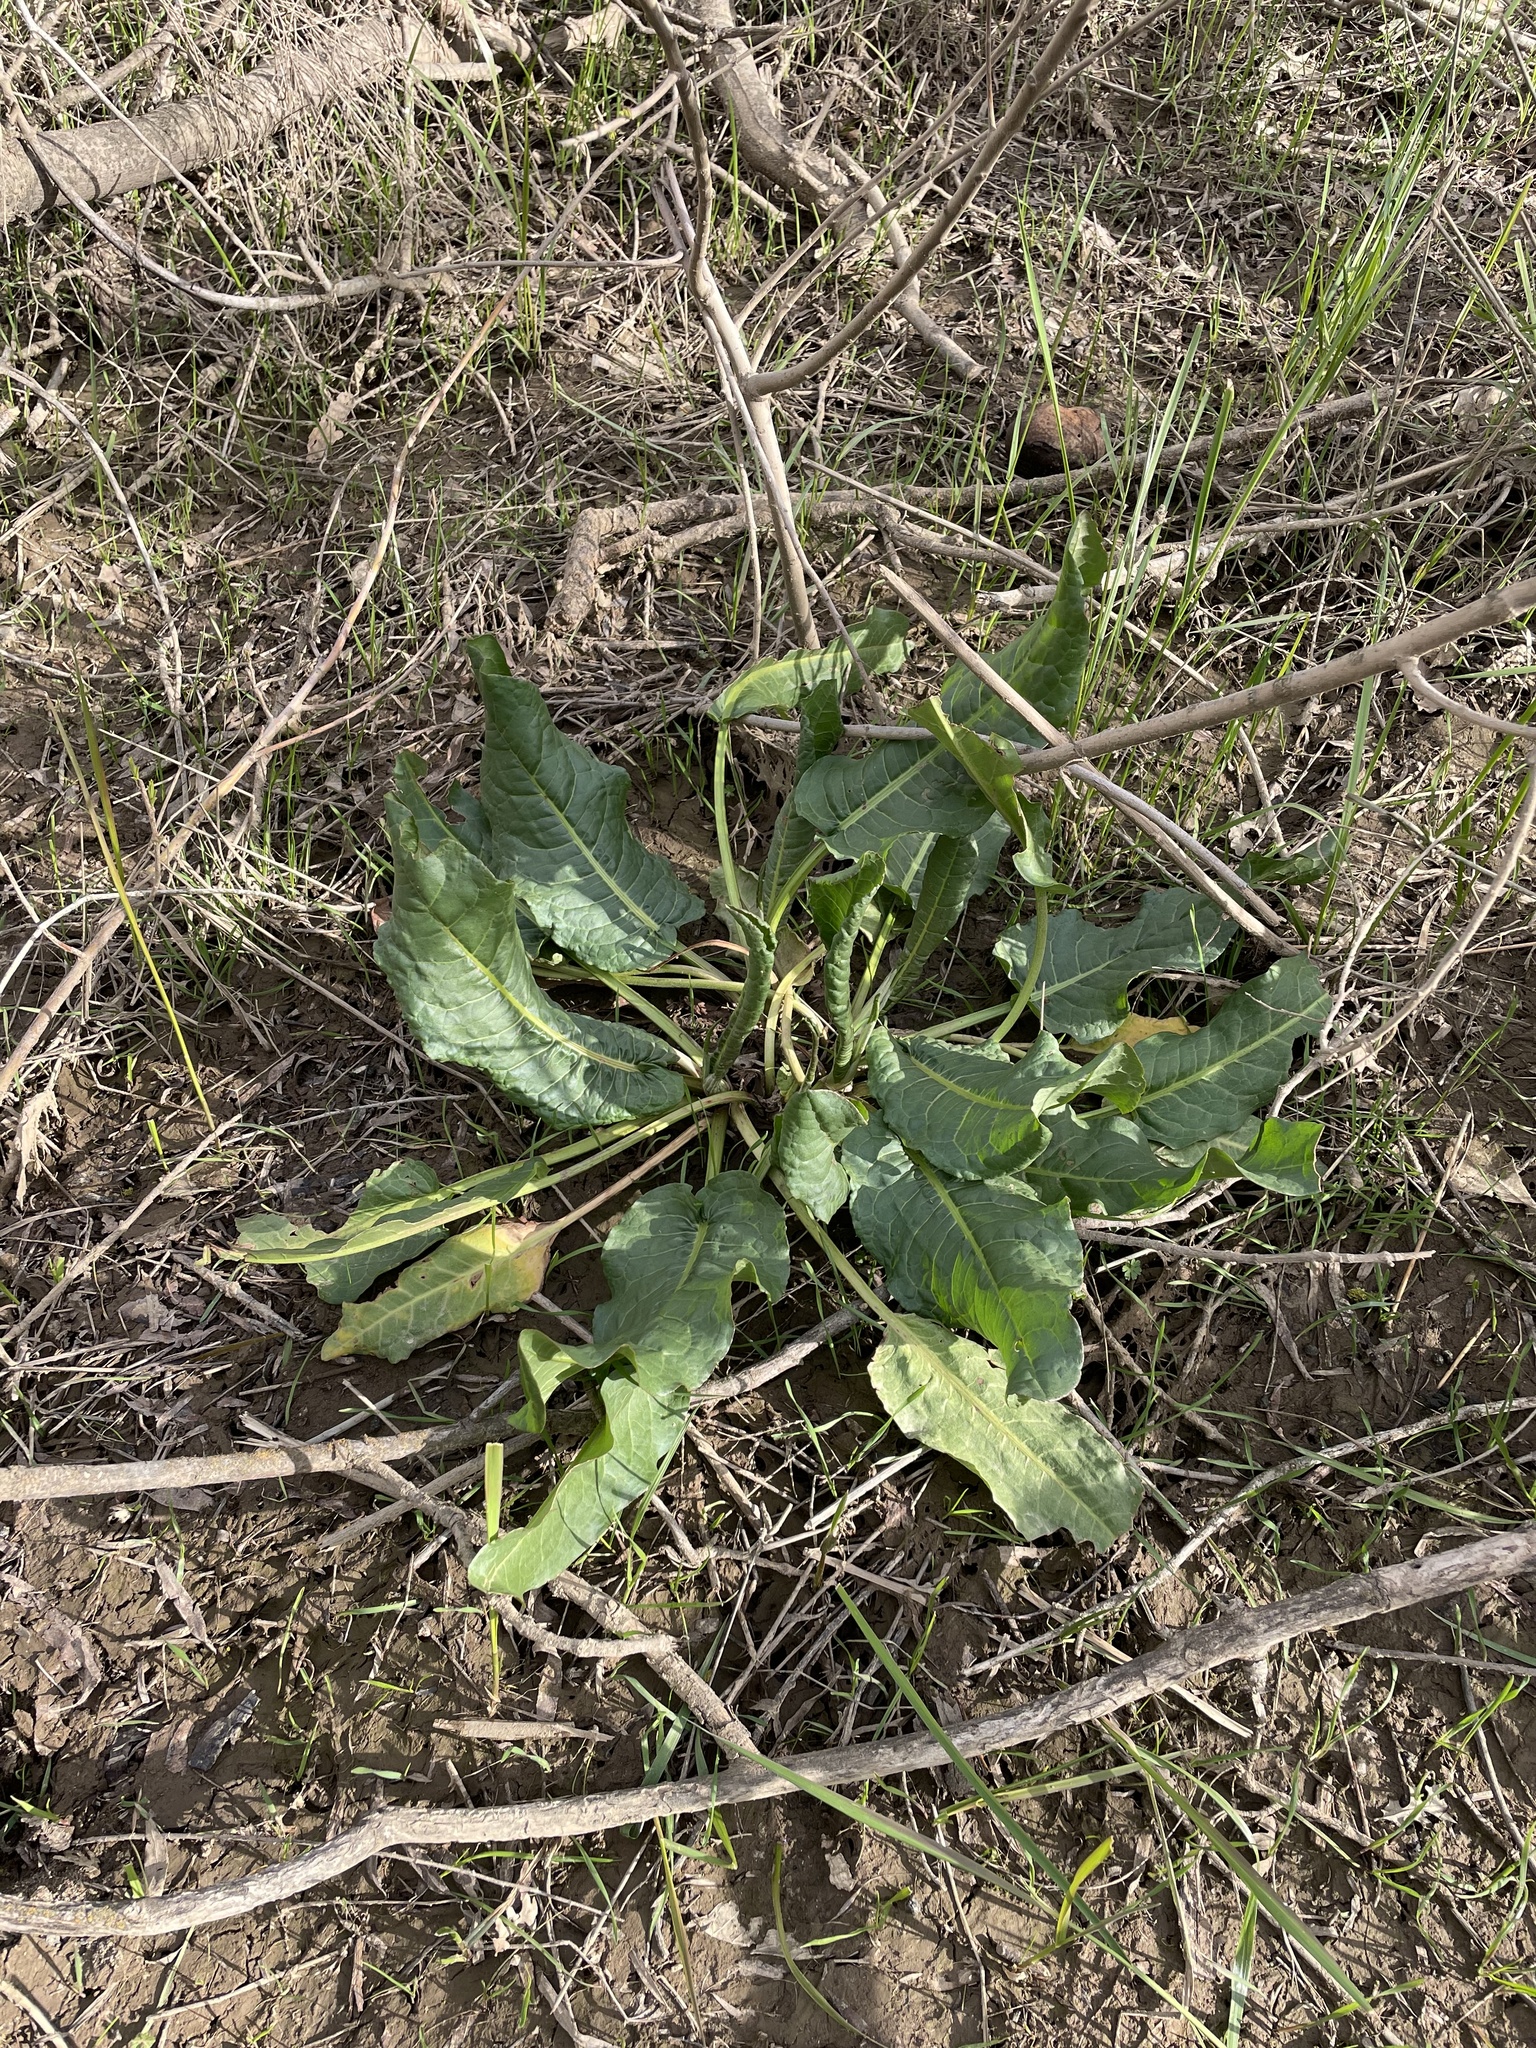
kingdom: Plantae
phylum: Tracheophyta
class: Magnoliopsida
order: Caryophyllales
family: Polygonaceae
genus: Rumex
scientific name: Rumex crispus
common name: Curled dock
